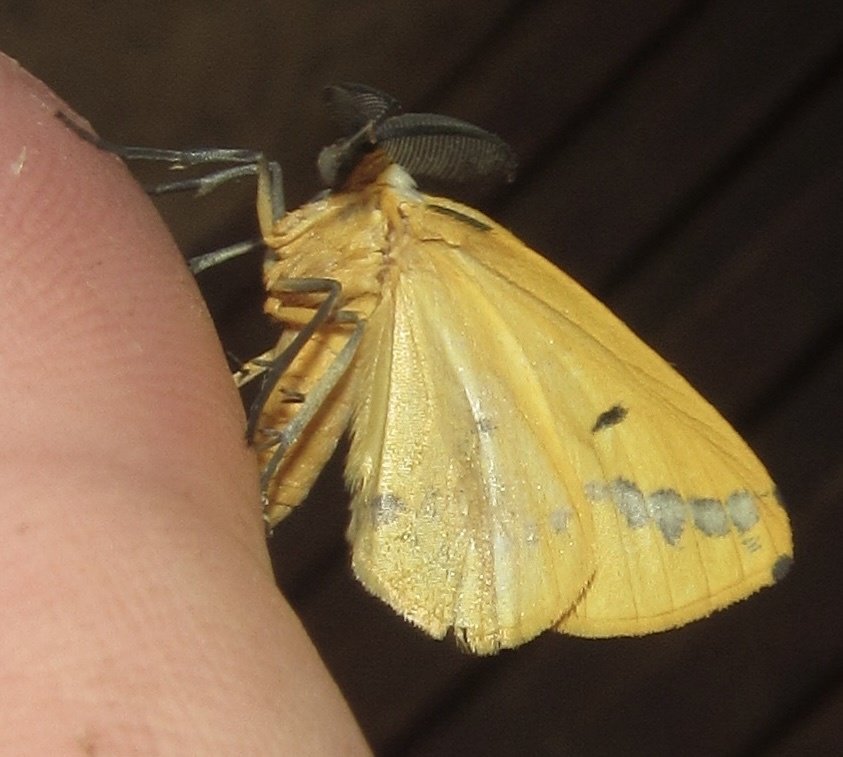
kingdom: Animalia
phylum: Arthropoda
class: Insecta
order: Lepidoptera
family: Geometridae
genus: Phoenicocampa
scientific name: Phoenicocampa terinata
